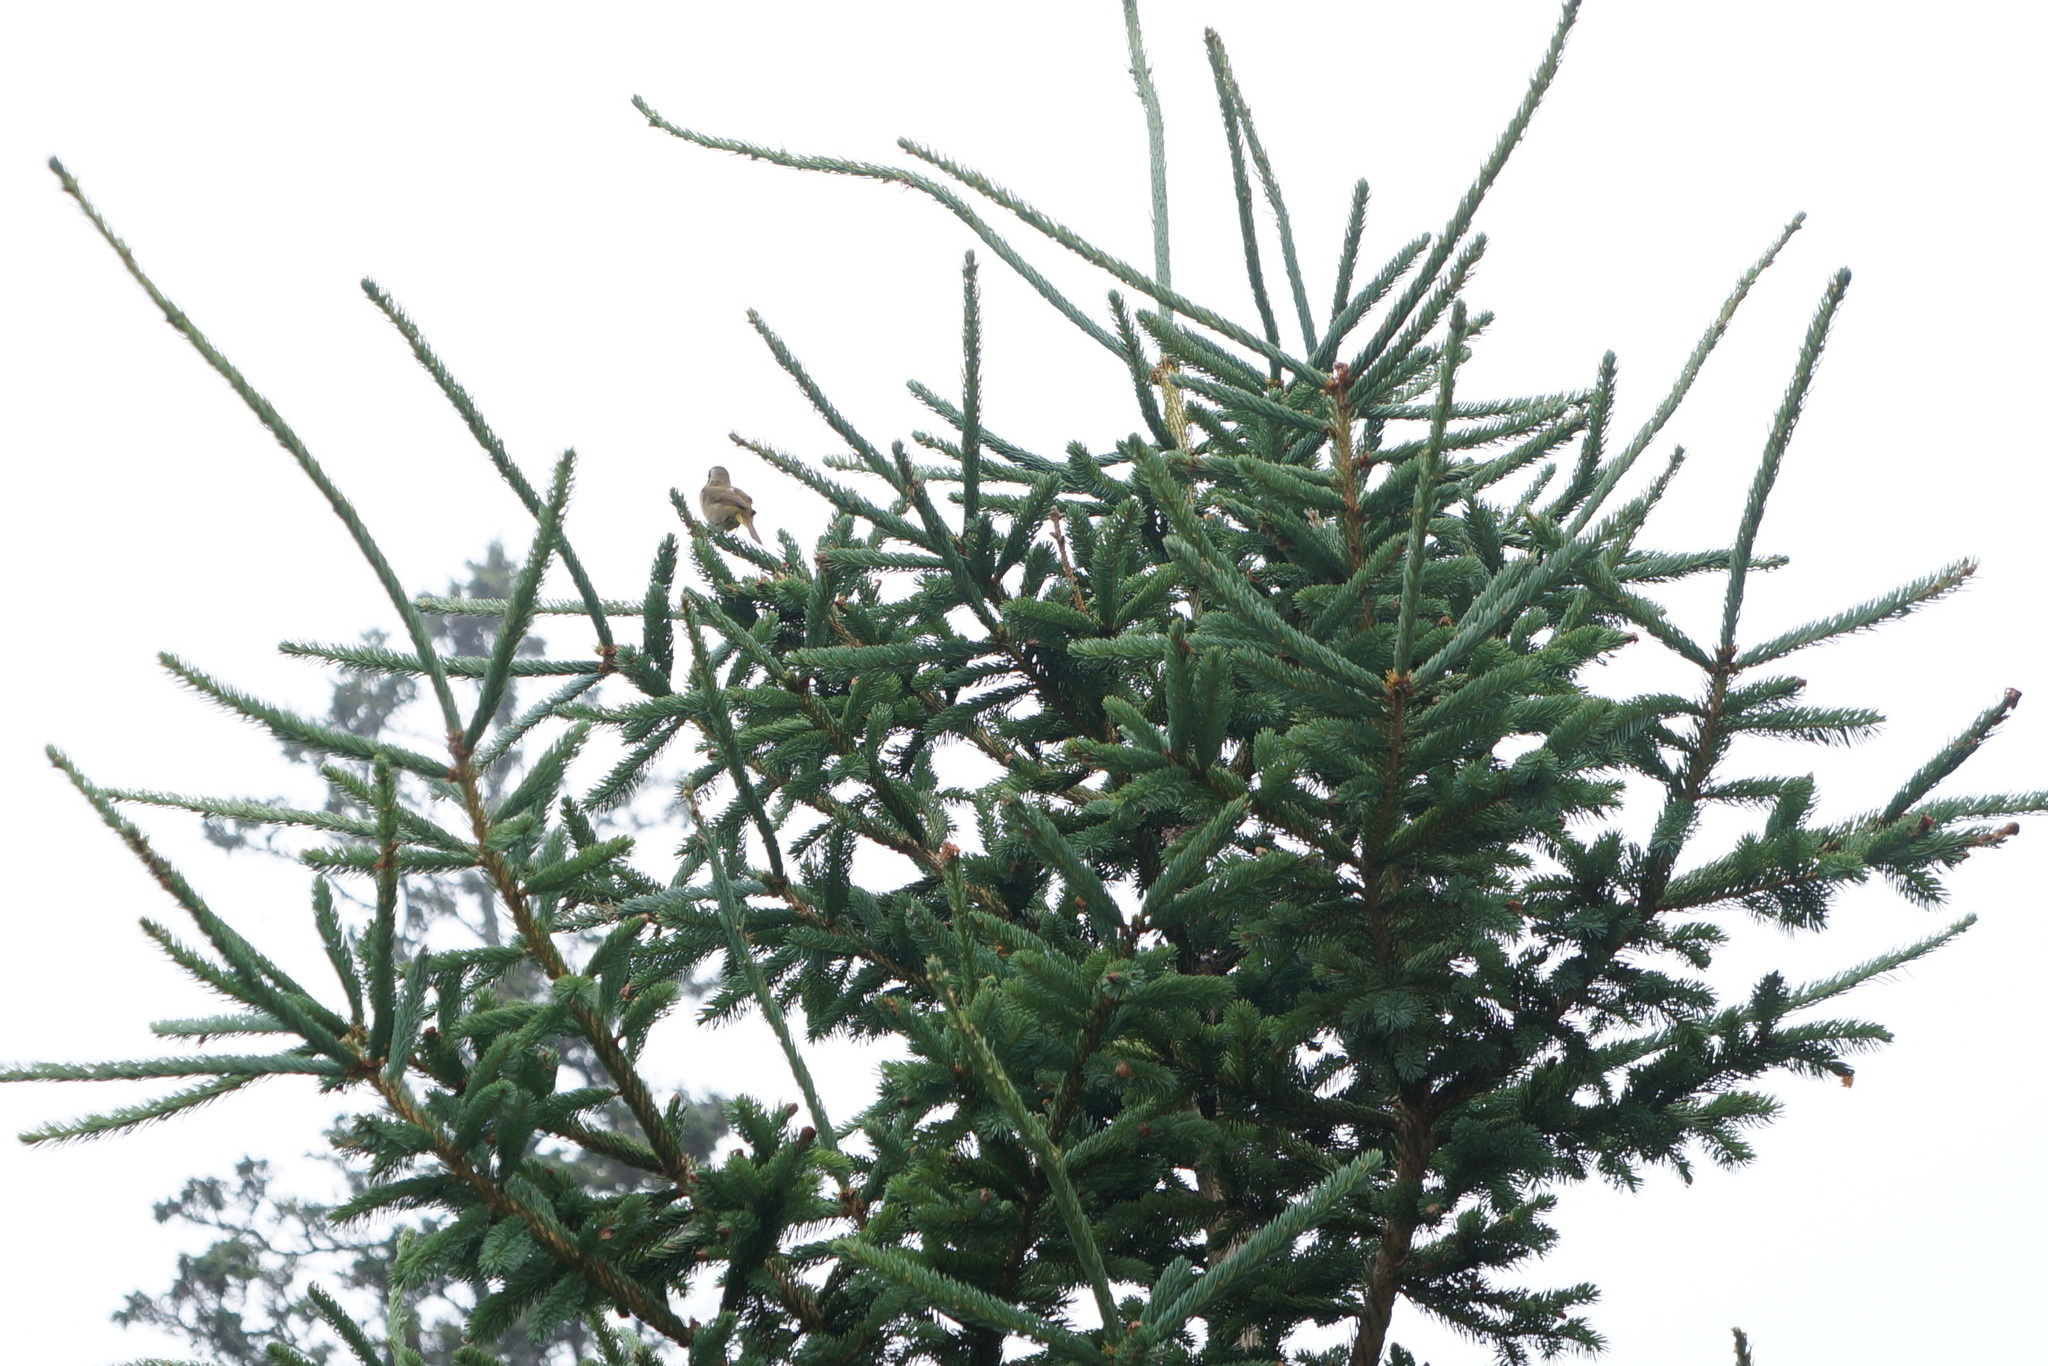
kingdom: Plantae
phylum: Tracheophyta
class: Pinopsida
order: Pinales
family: Pinaceae
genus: Picea
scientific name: Picea glauca
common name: White spruce
